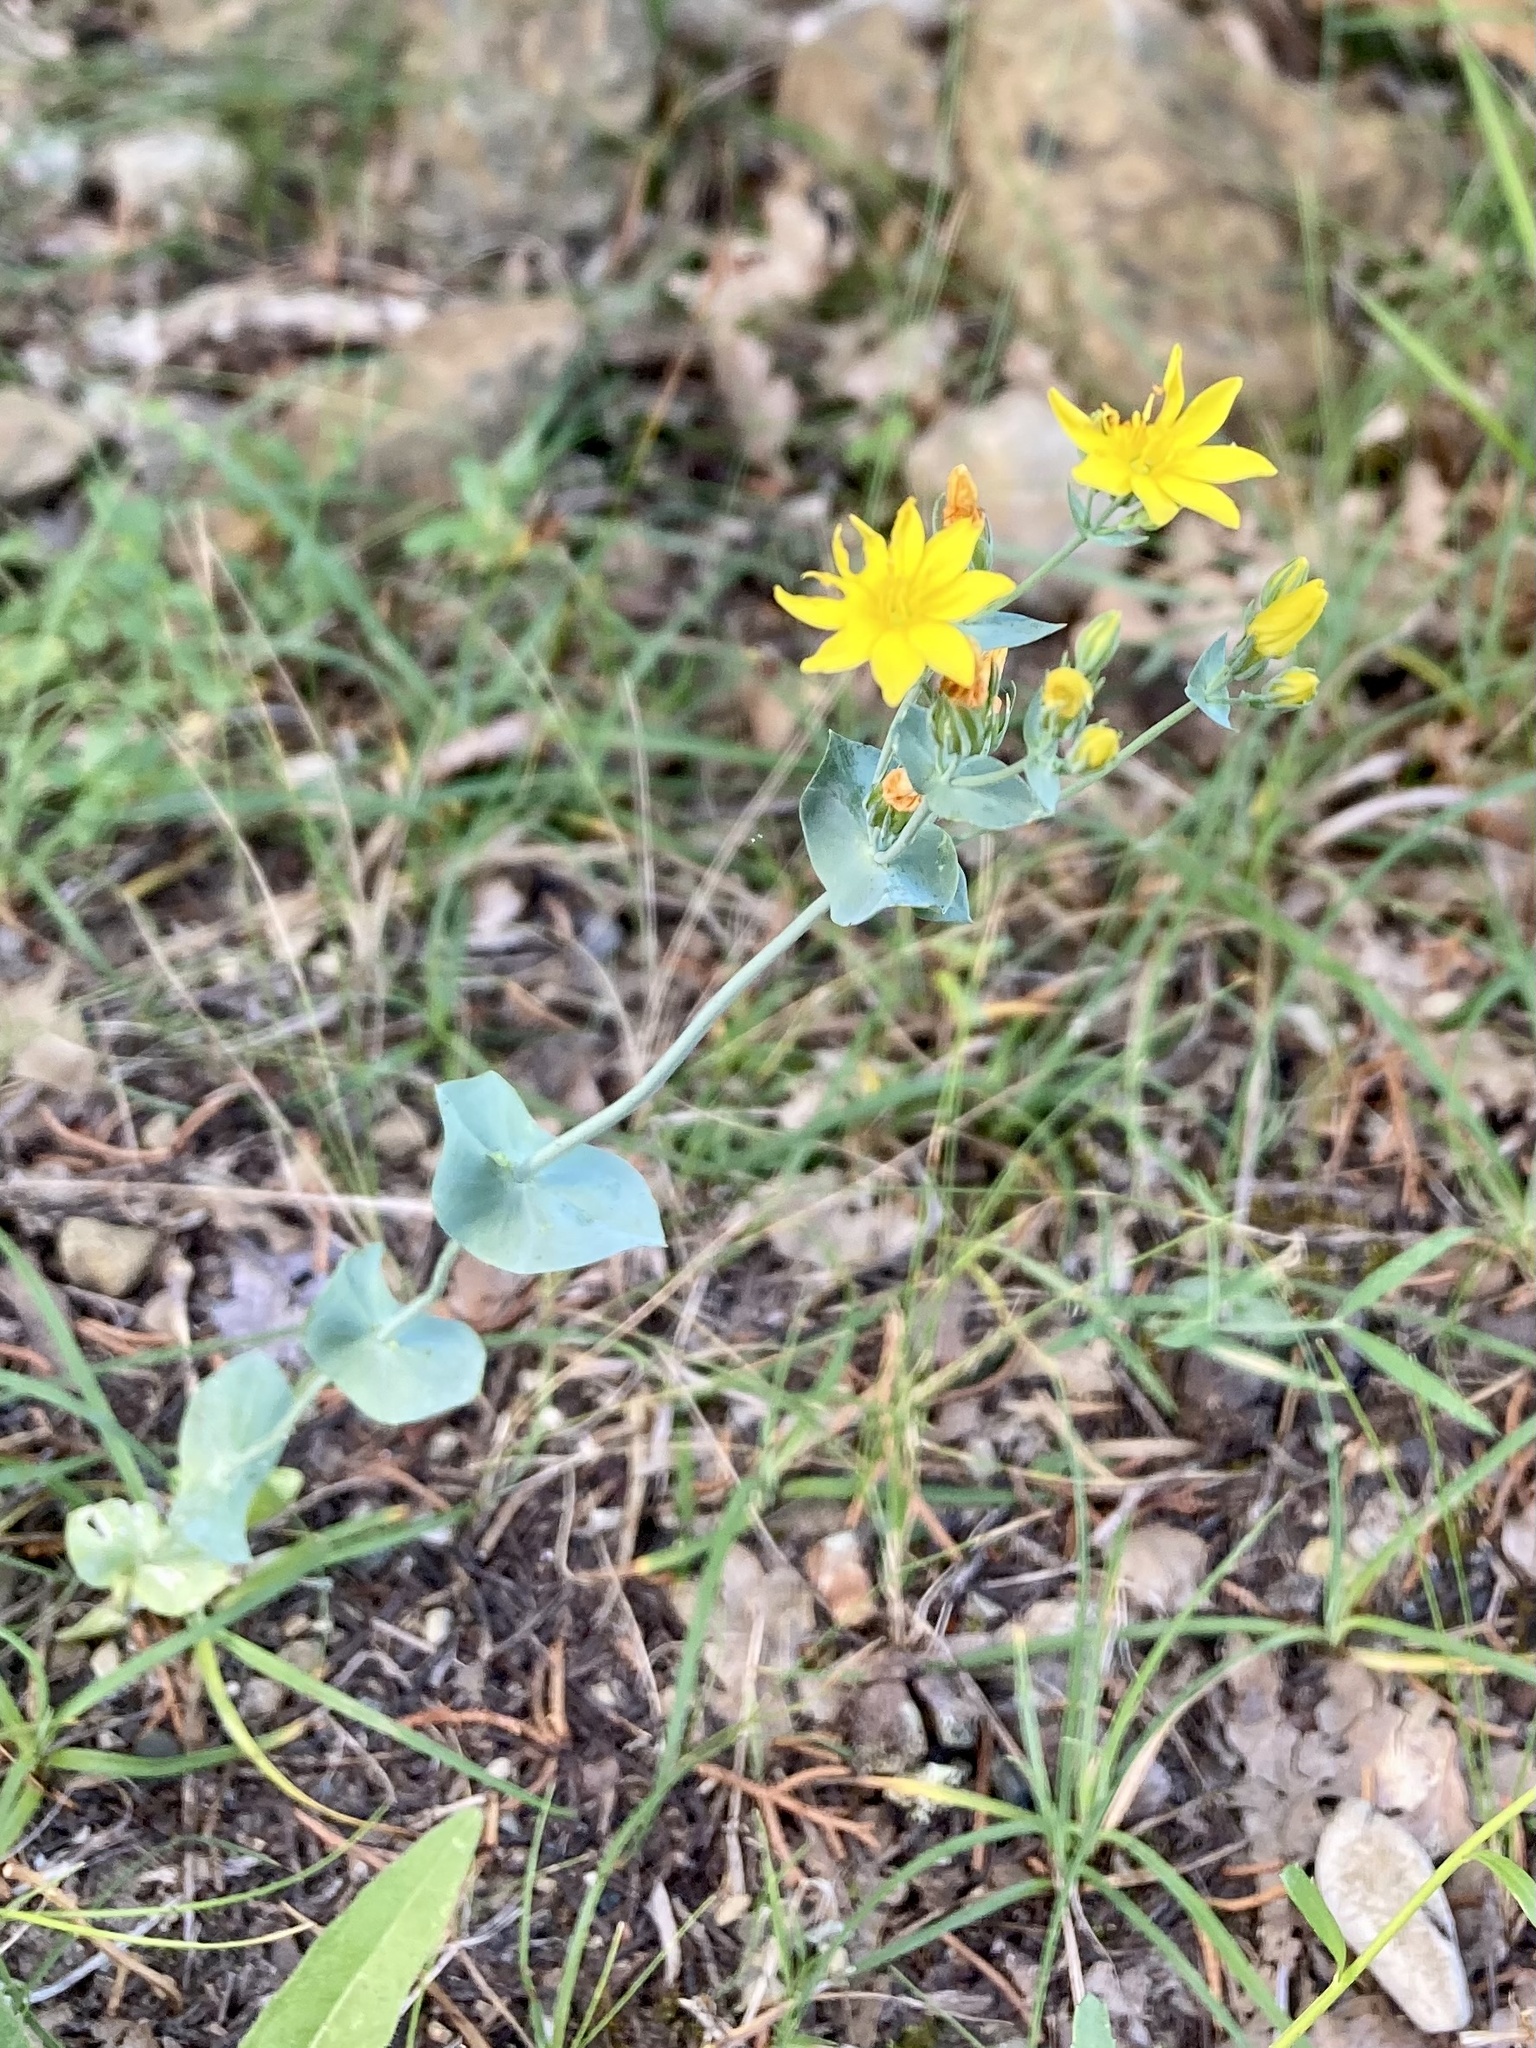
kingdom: Plantae
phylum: Tracheophyta
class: Magnoliopsida
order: Gentianales
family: Gentianaceae
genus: Blackstonia
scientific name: Blackstonia perfoliata
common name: Yellow-wort
